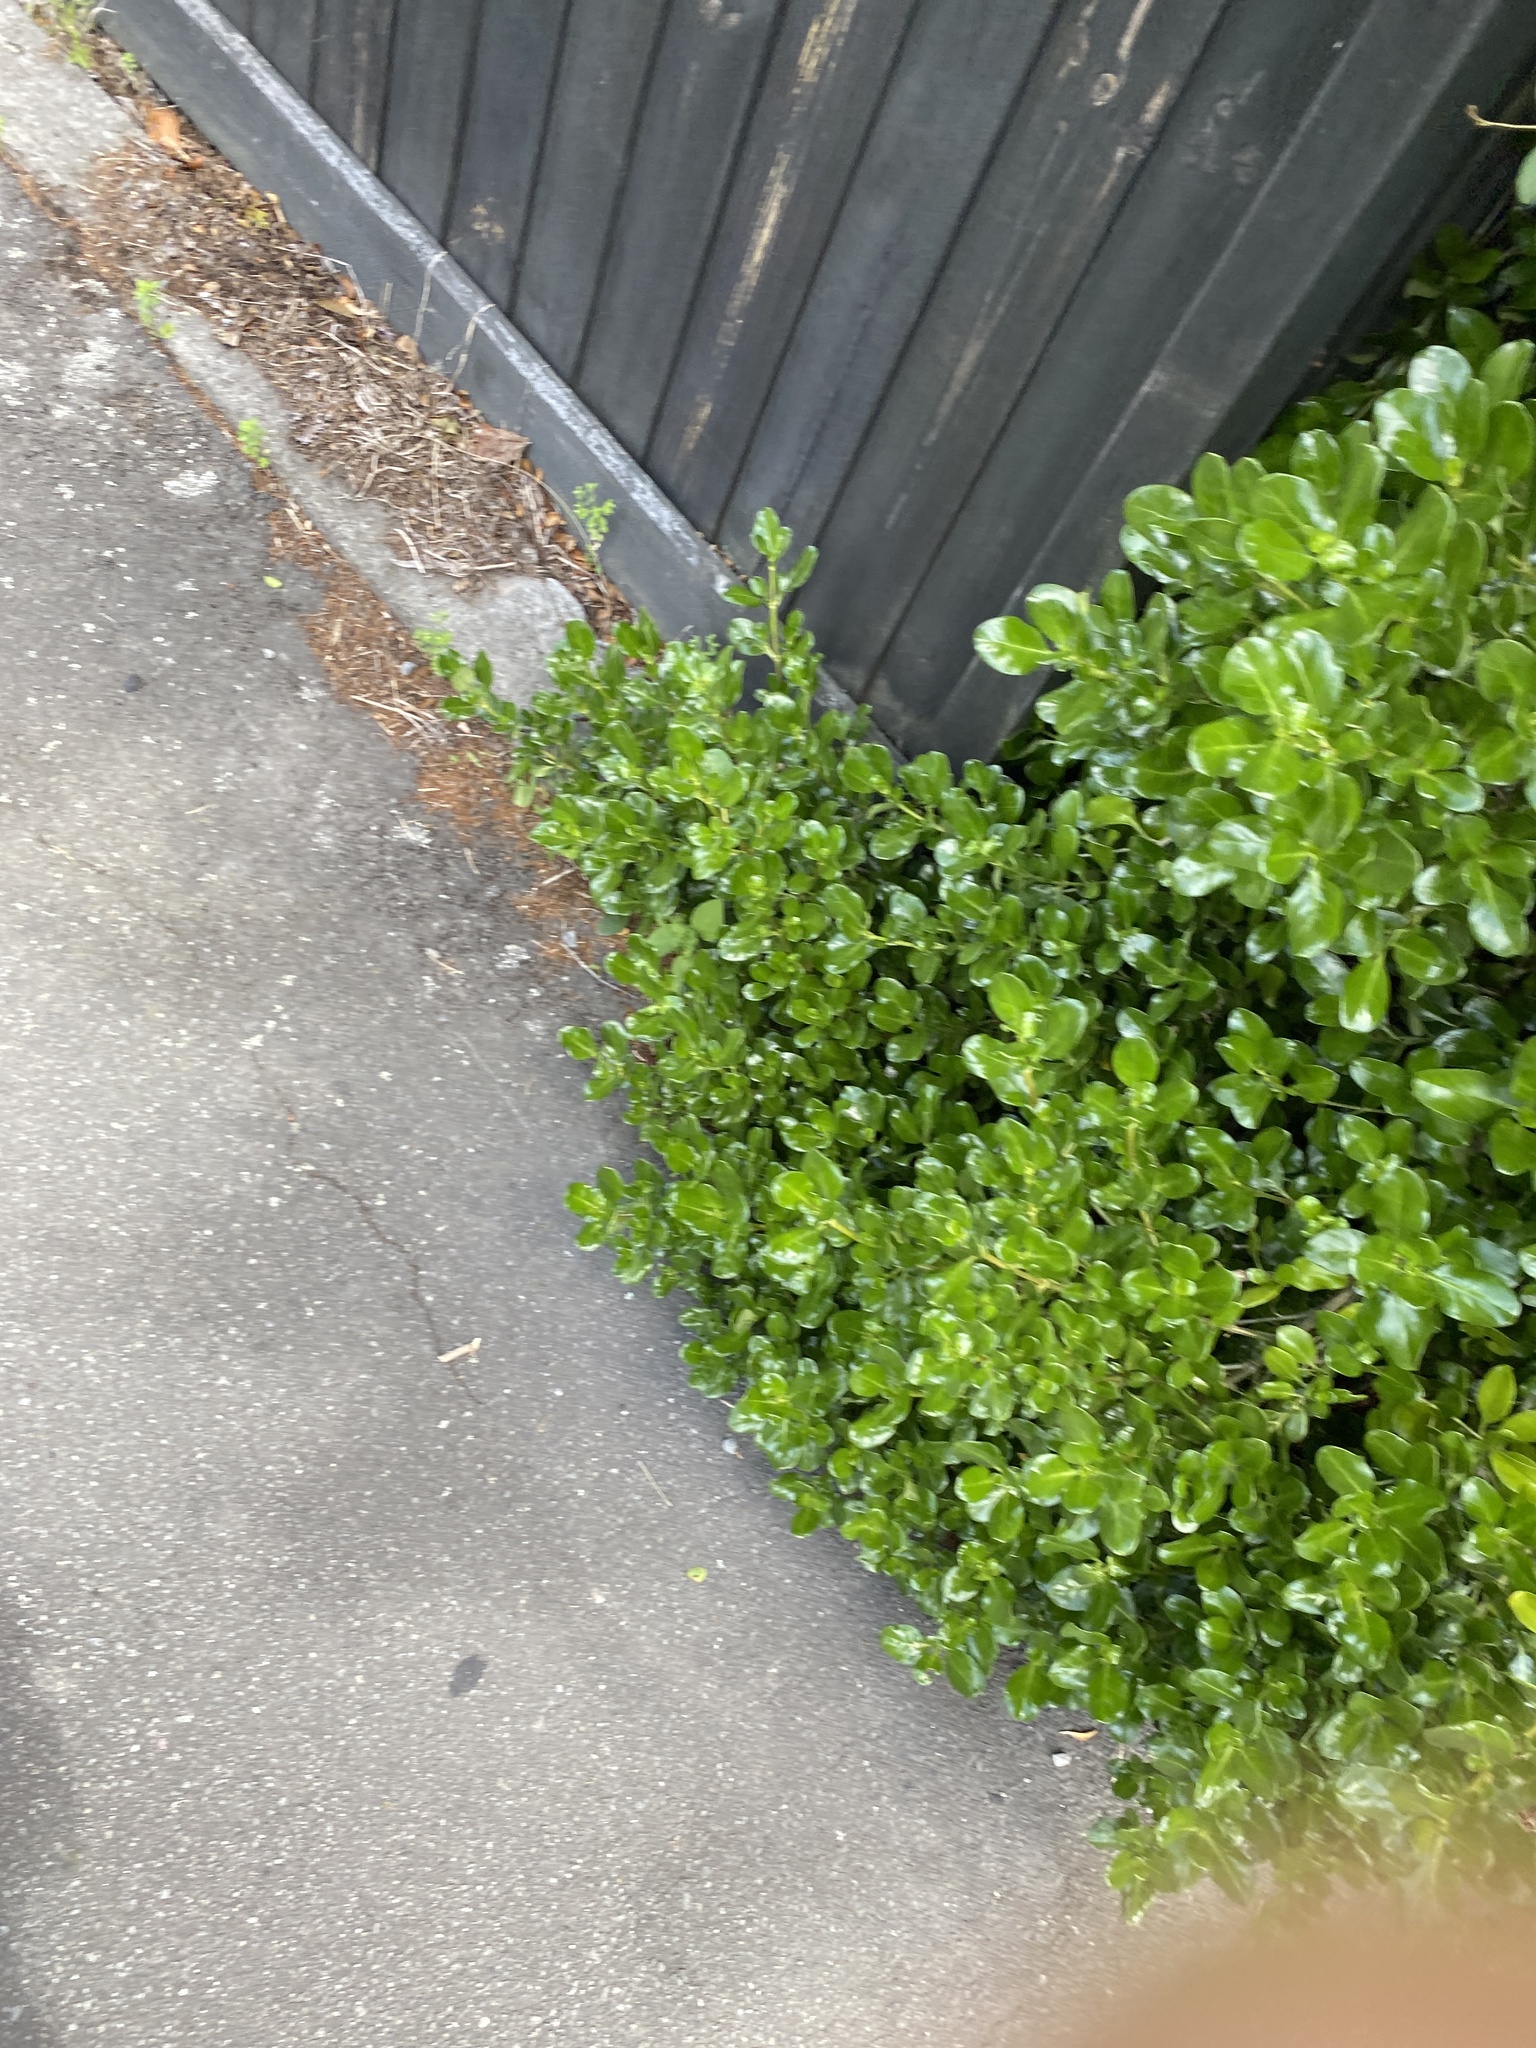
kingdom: Plantae
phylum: Tracheophyta
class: Magnoliopsida
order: Gentianales
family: Rubiaceae
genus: Coprosma
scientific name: Coprosma repens
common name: Tree bedstraw
